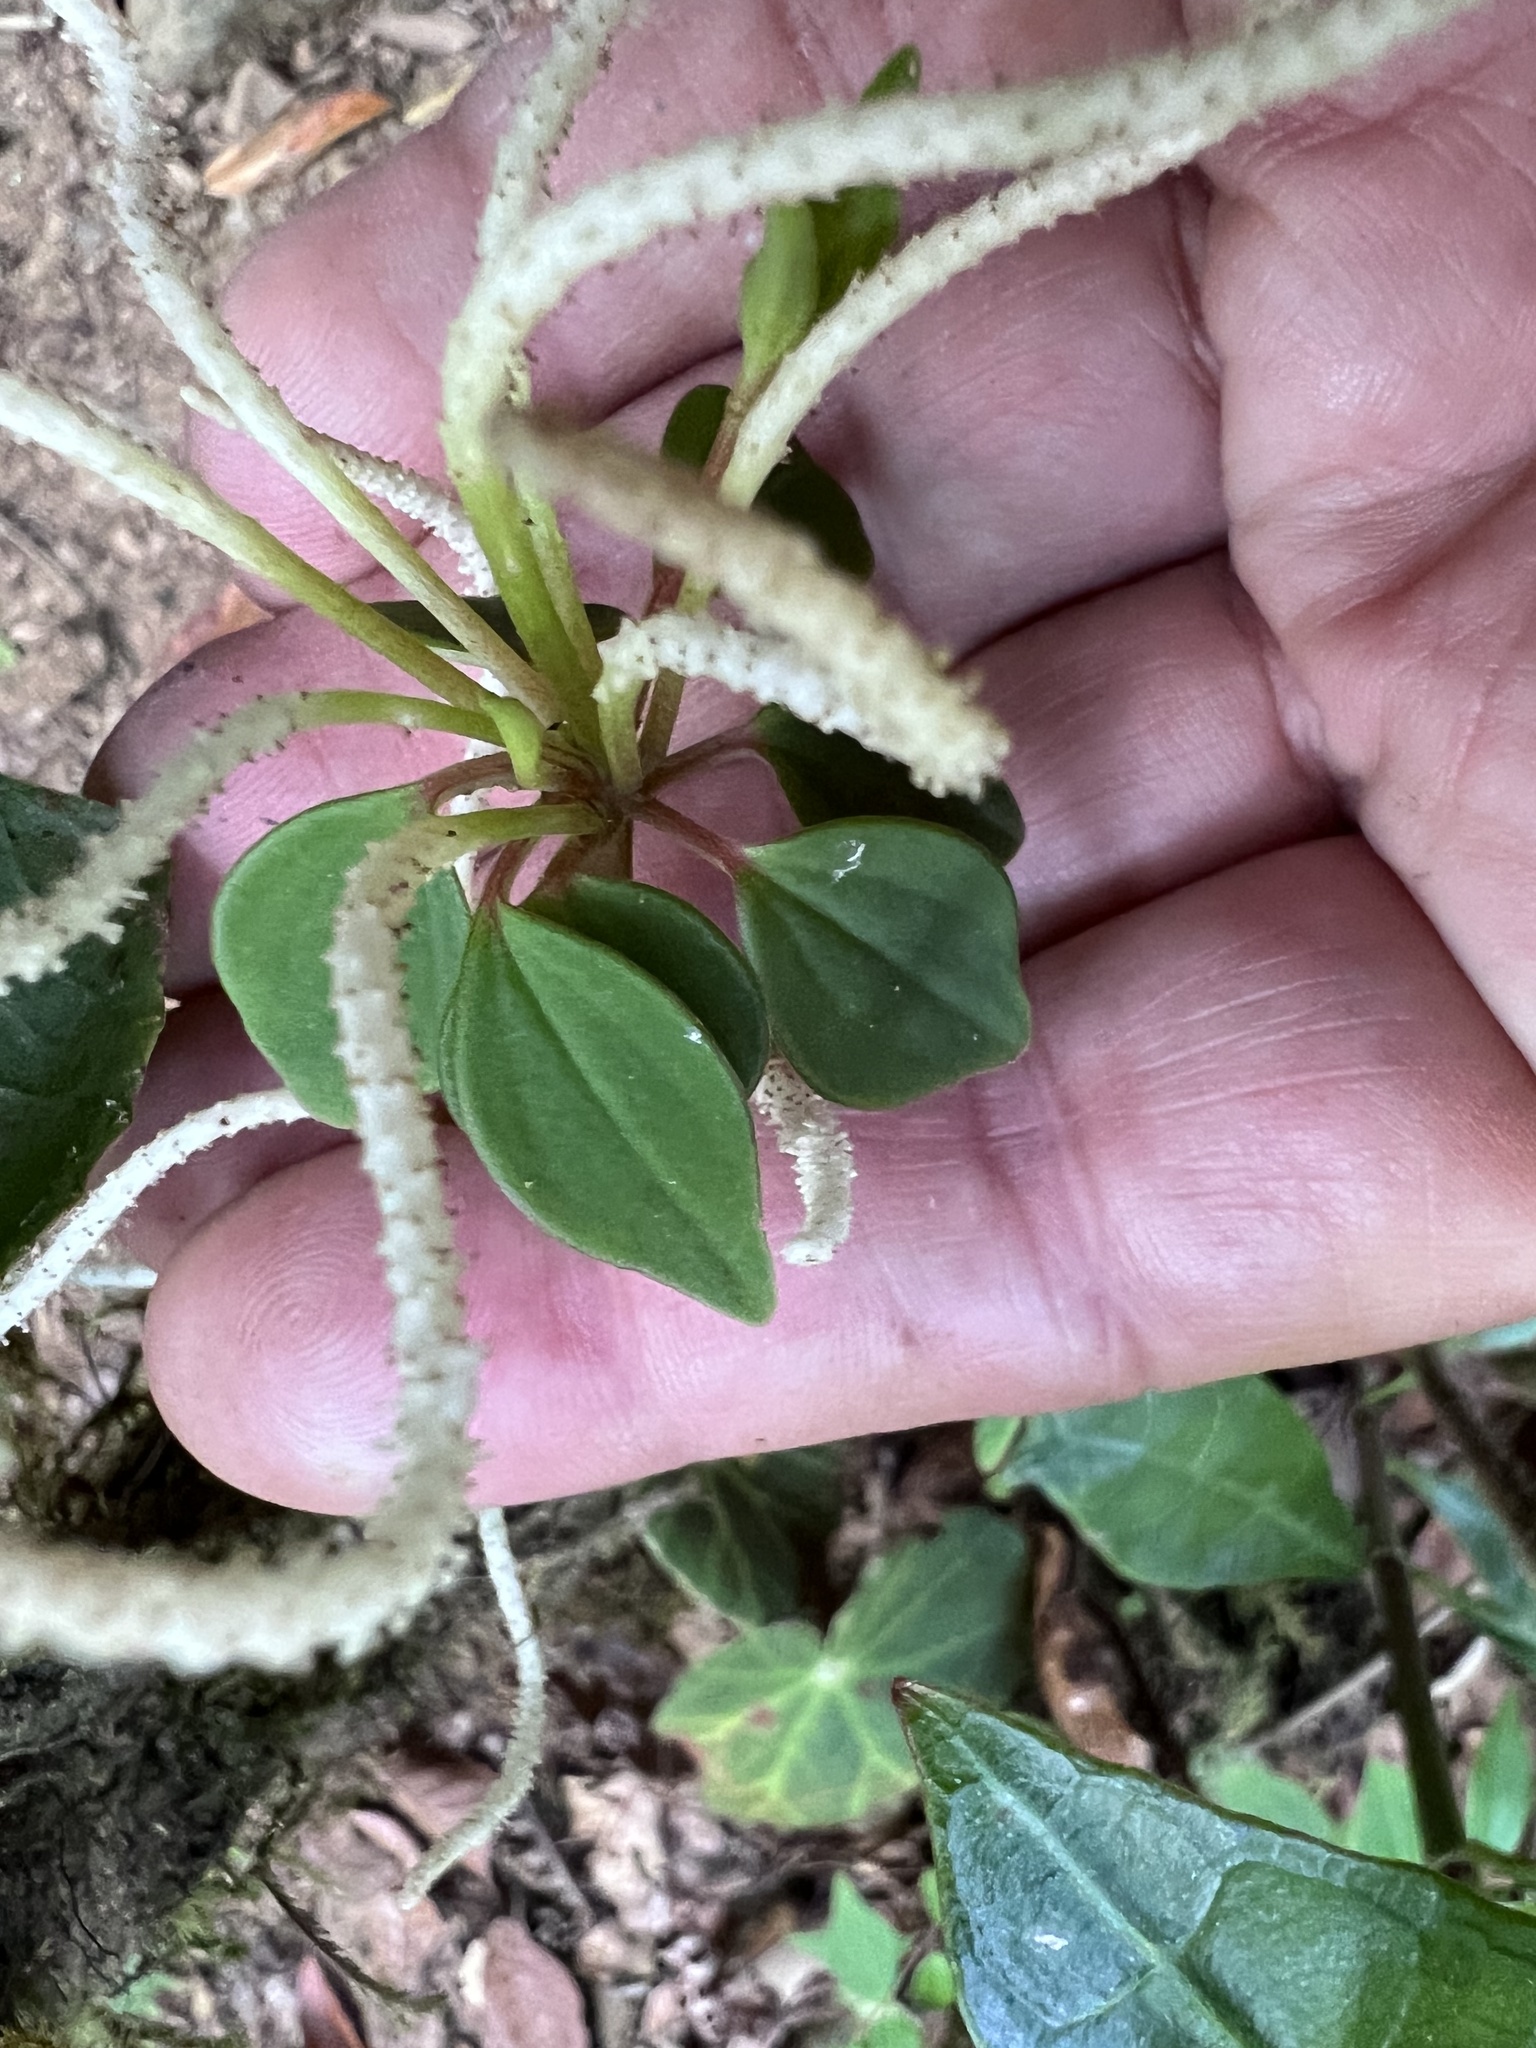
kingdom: Plantae
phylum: Tracheophyta
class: Magnoliopsida
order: Piperales
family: Piperaceae
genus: Peperomia
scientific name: Peperomia palmana
